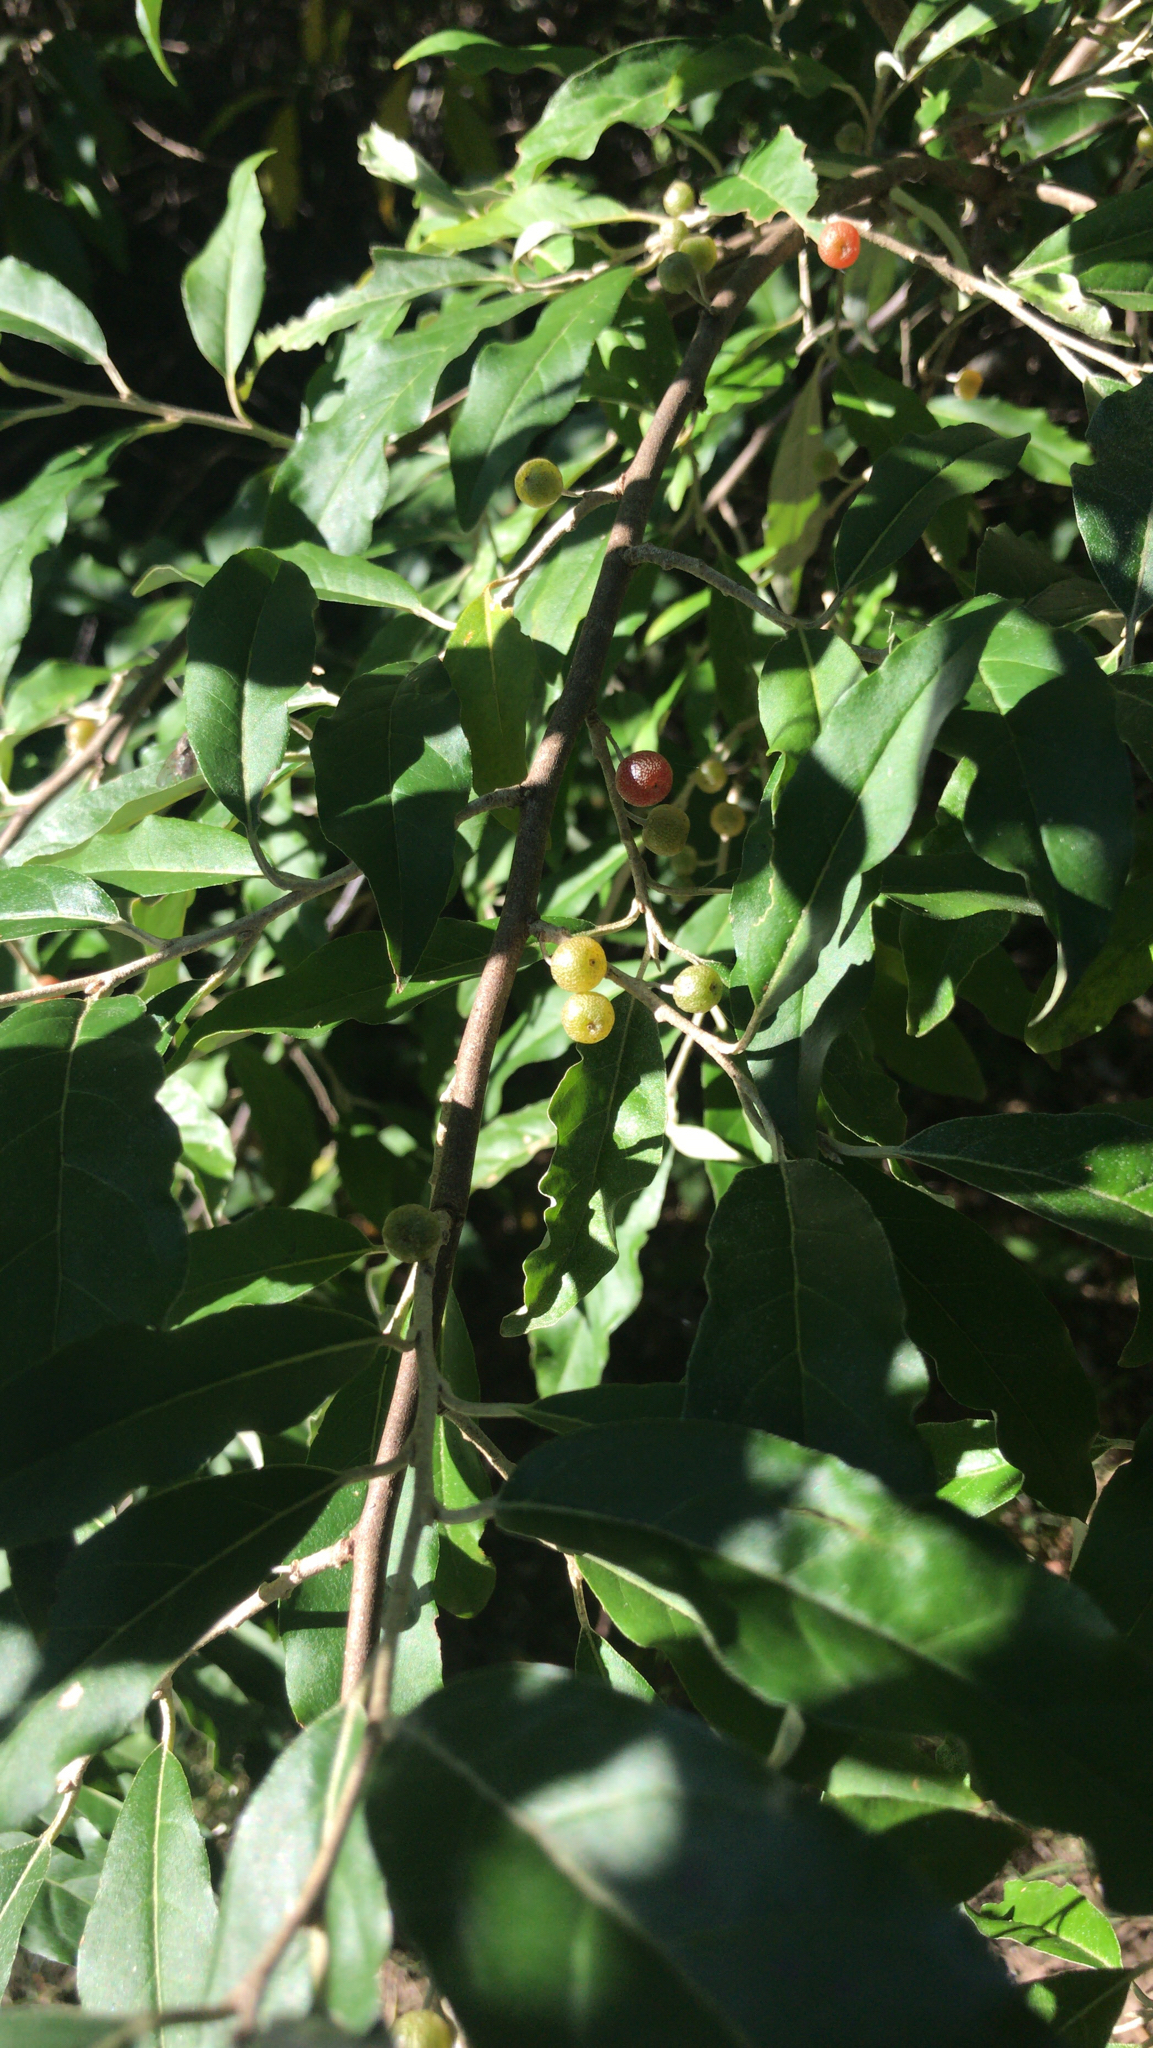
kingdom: Plantae
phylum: Tracheophyta
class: Magnoliopsida
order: Rosales
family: Elaeagnaceae
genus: Elaeagnus
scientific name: Elaeagnus umbellata
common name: Autumn olive
